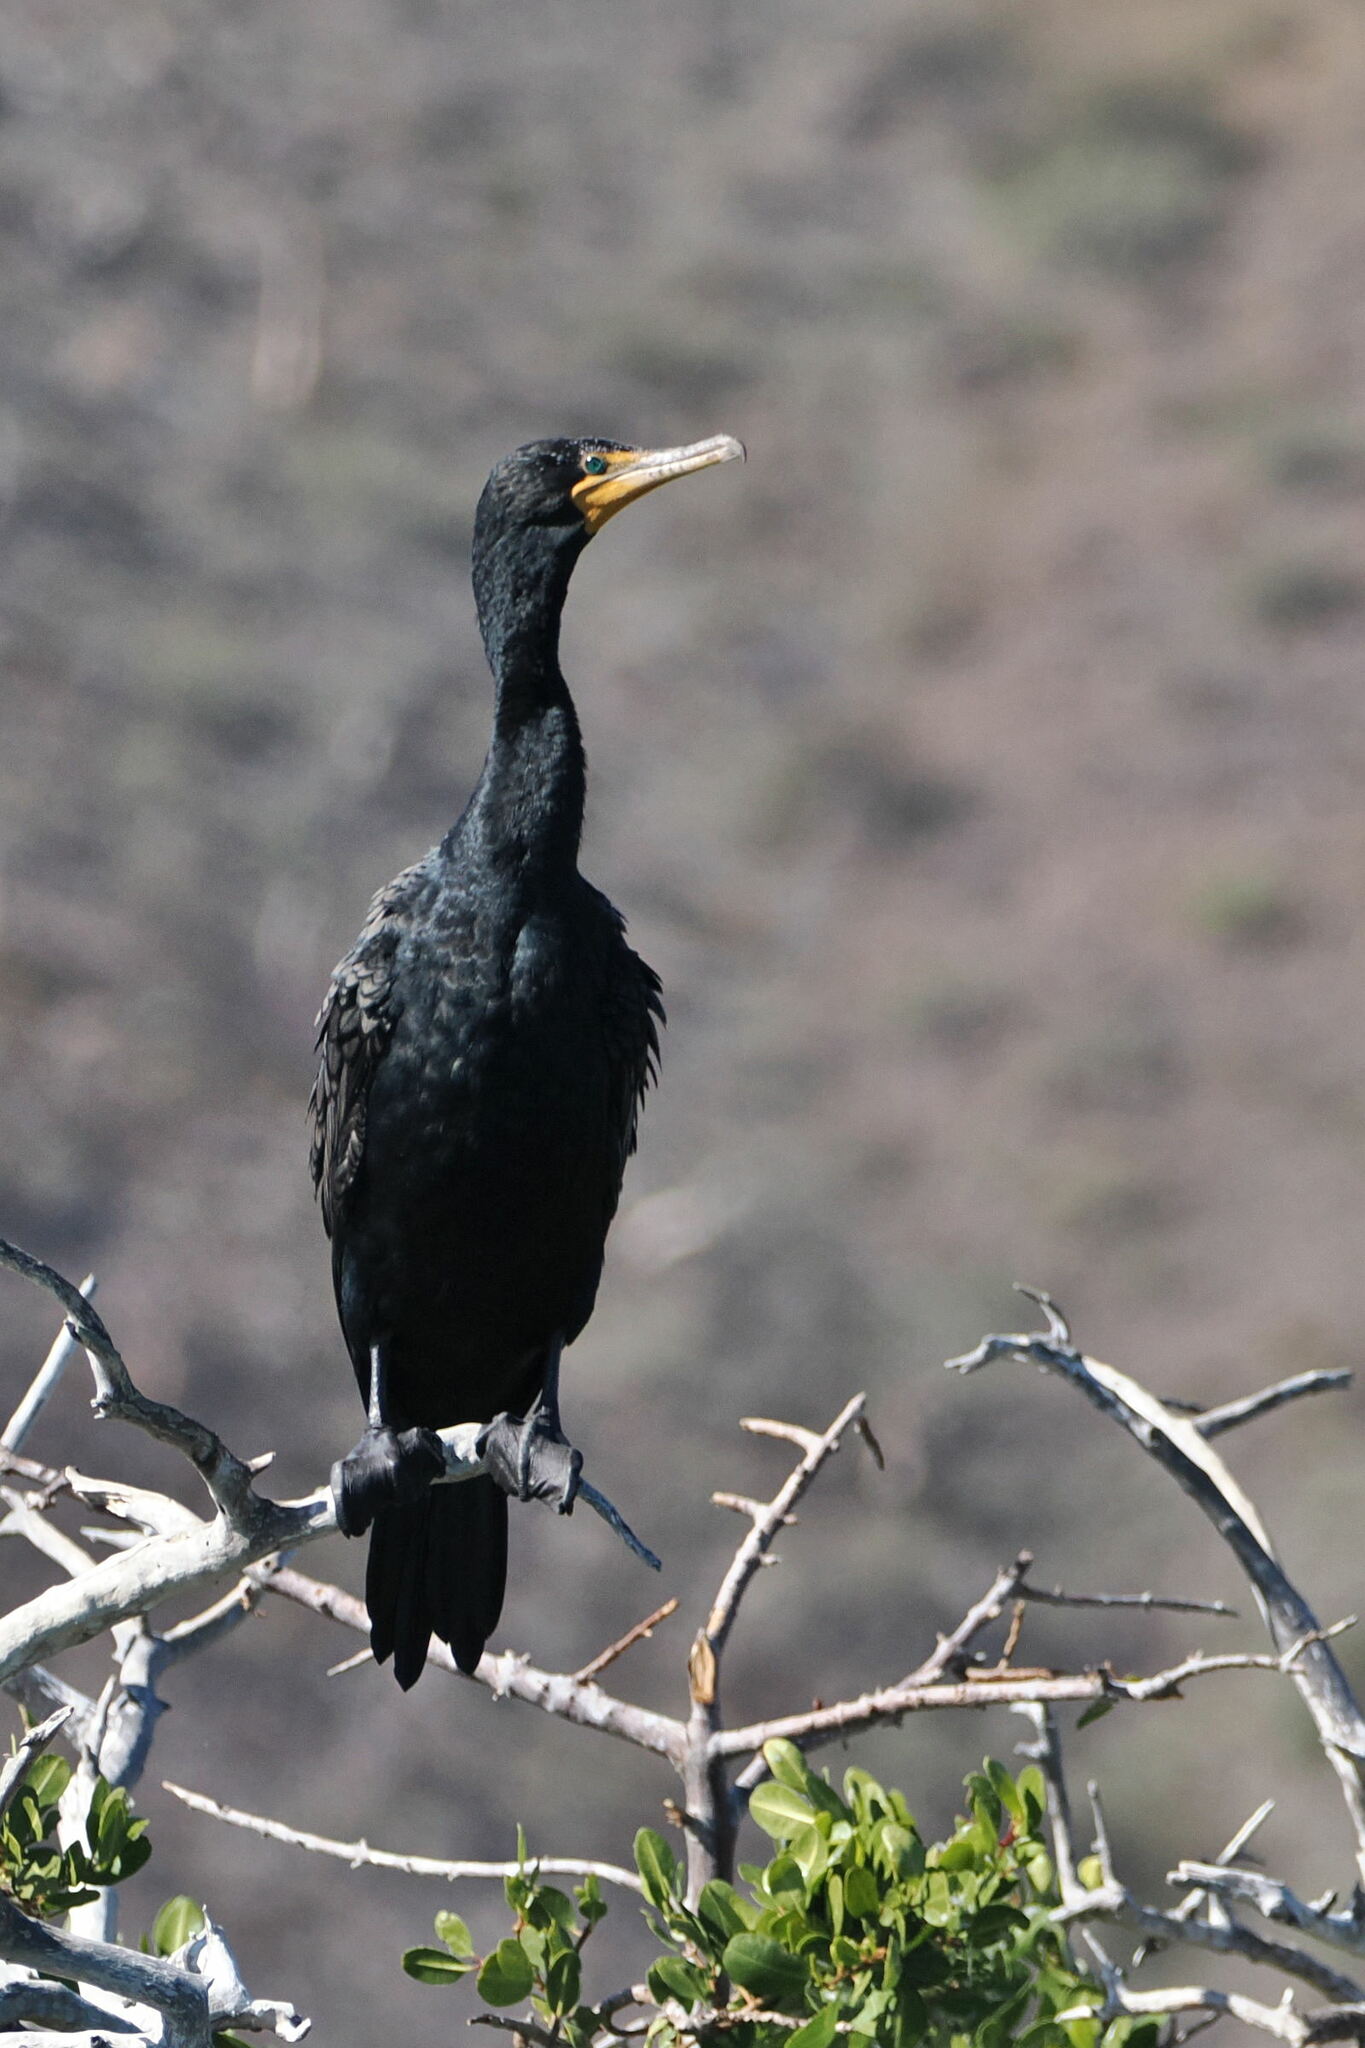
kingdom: Animalia
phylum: Chordata
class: Aves
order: Suliformes
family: Phalacrocoracidae
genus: Phalacrocorax
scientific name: Phalacrocorax auritus
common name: Double-crested cormorant
